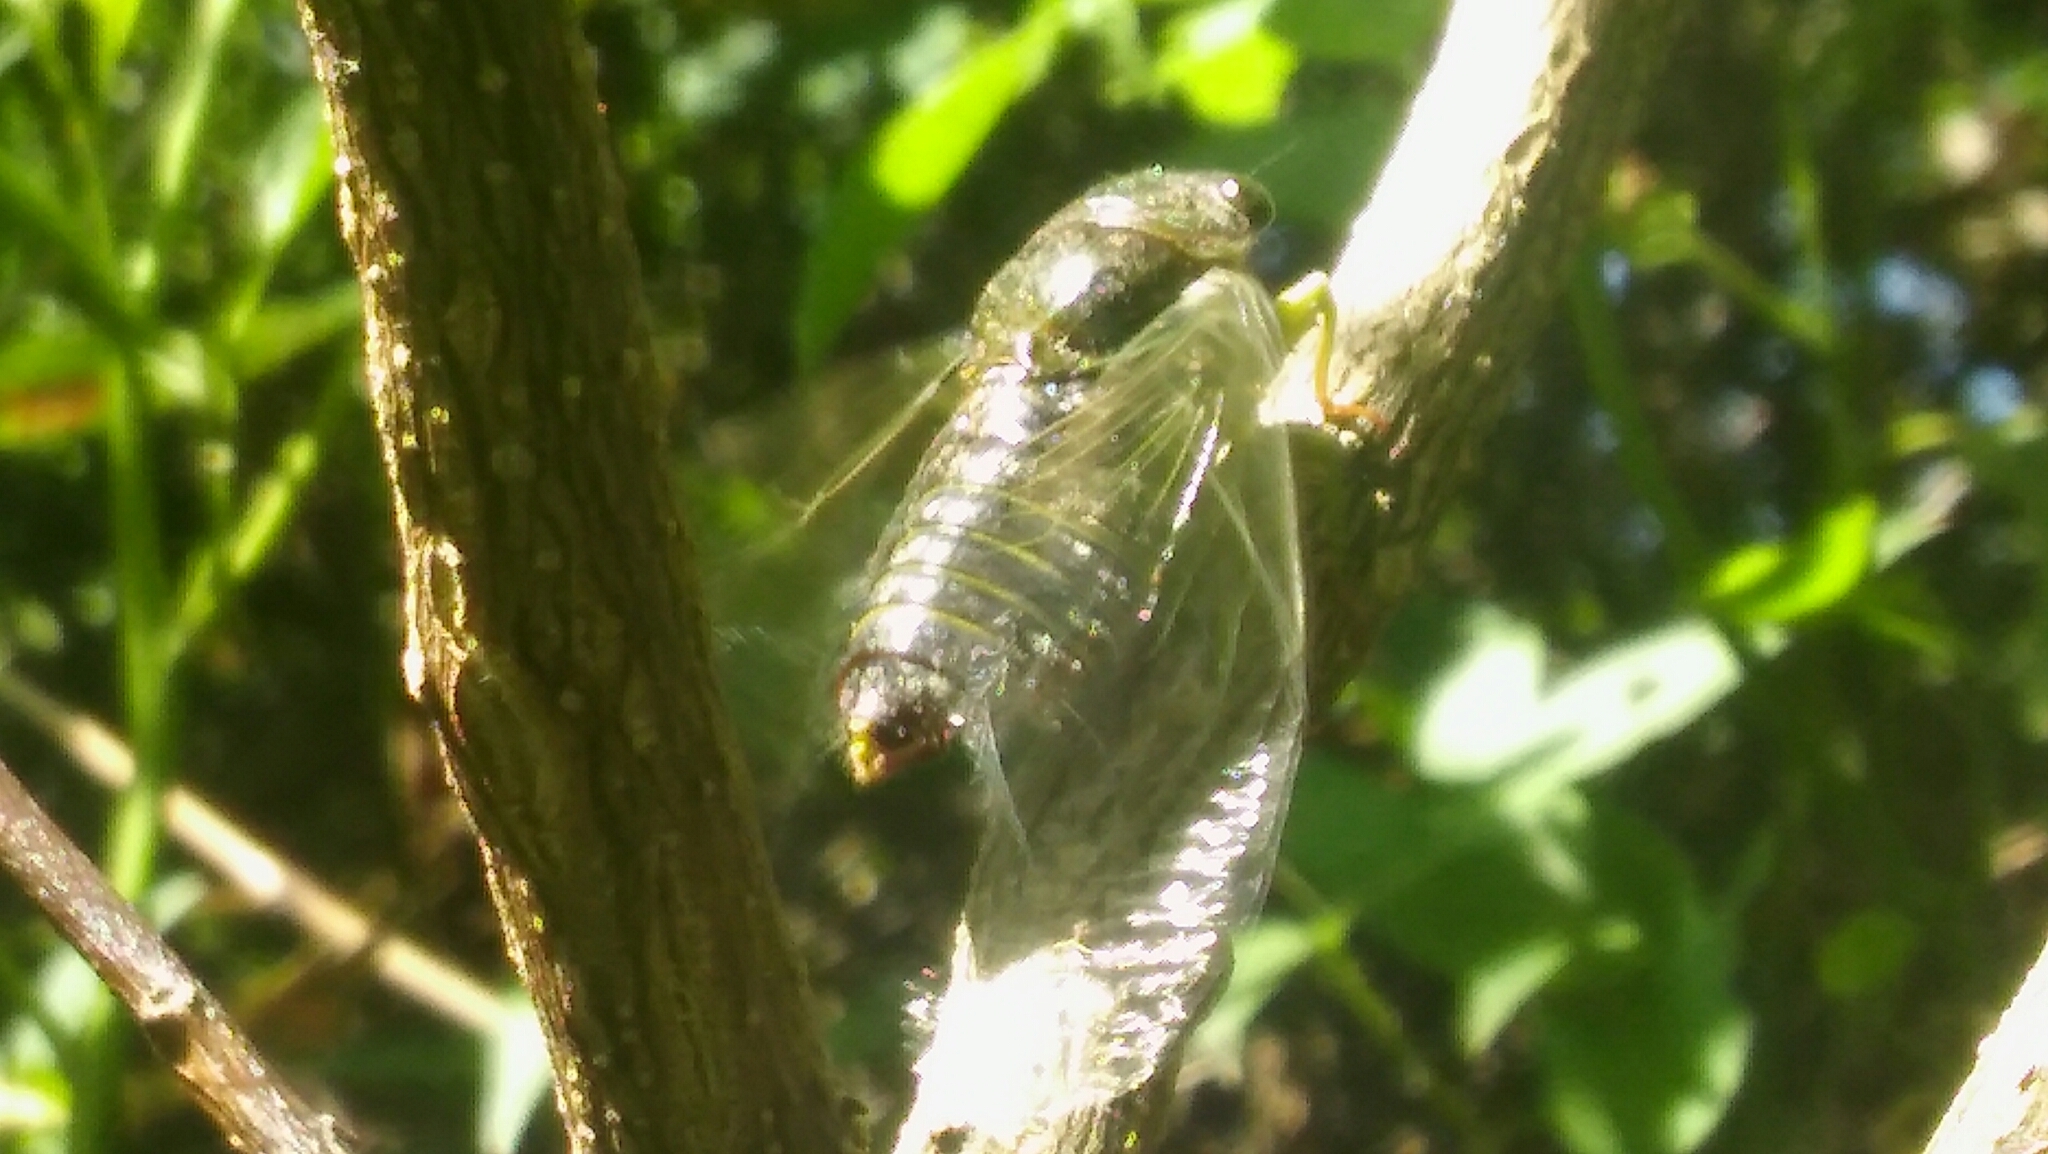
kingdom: Animalia
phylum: Arthropoda
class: Insecta
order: Hemiptera
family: Cicadidae
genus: Acanthoventris
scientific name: Acanthoventris drewseni
